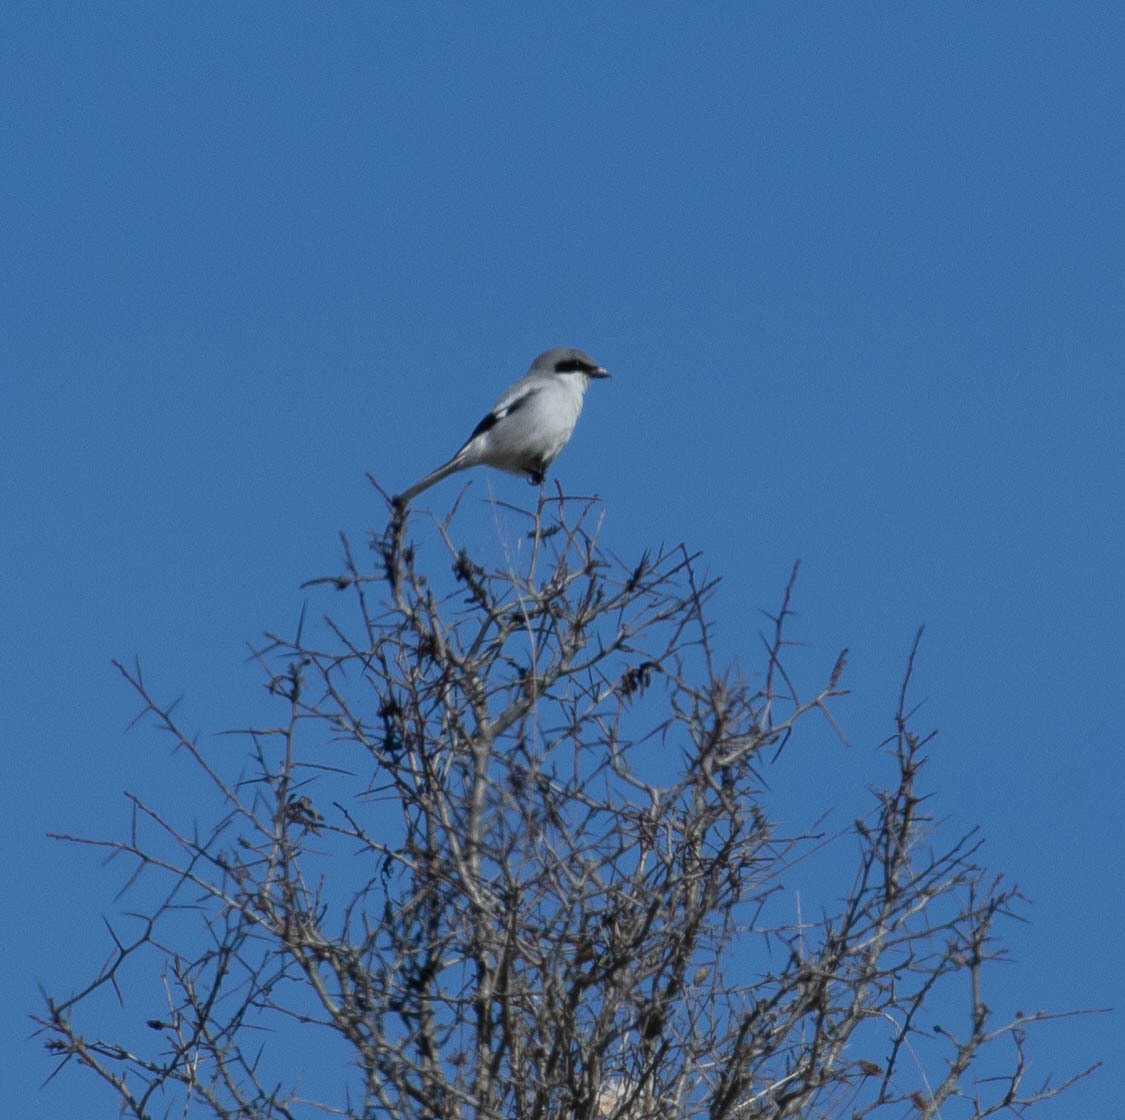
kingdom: Animalia
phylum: Chordata
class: Aves
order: Passeriformes
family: Laniidae
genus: Lanius
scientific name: Lanius ludovicianus
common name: Loggerhead shrike
